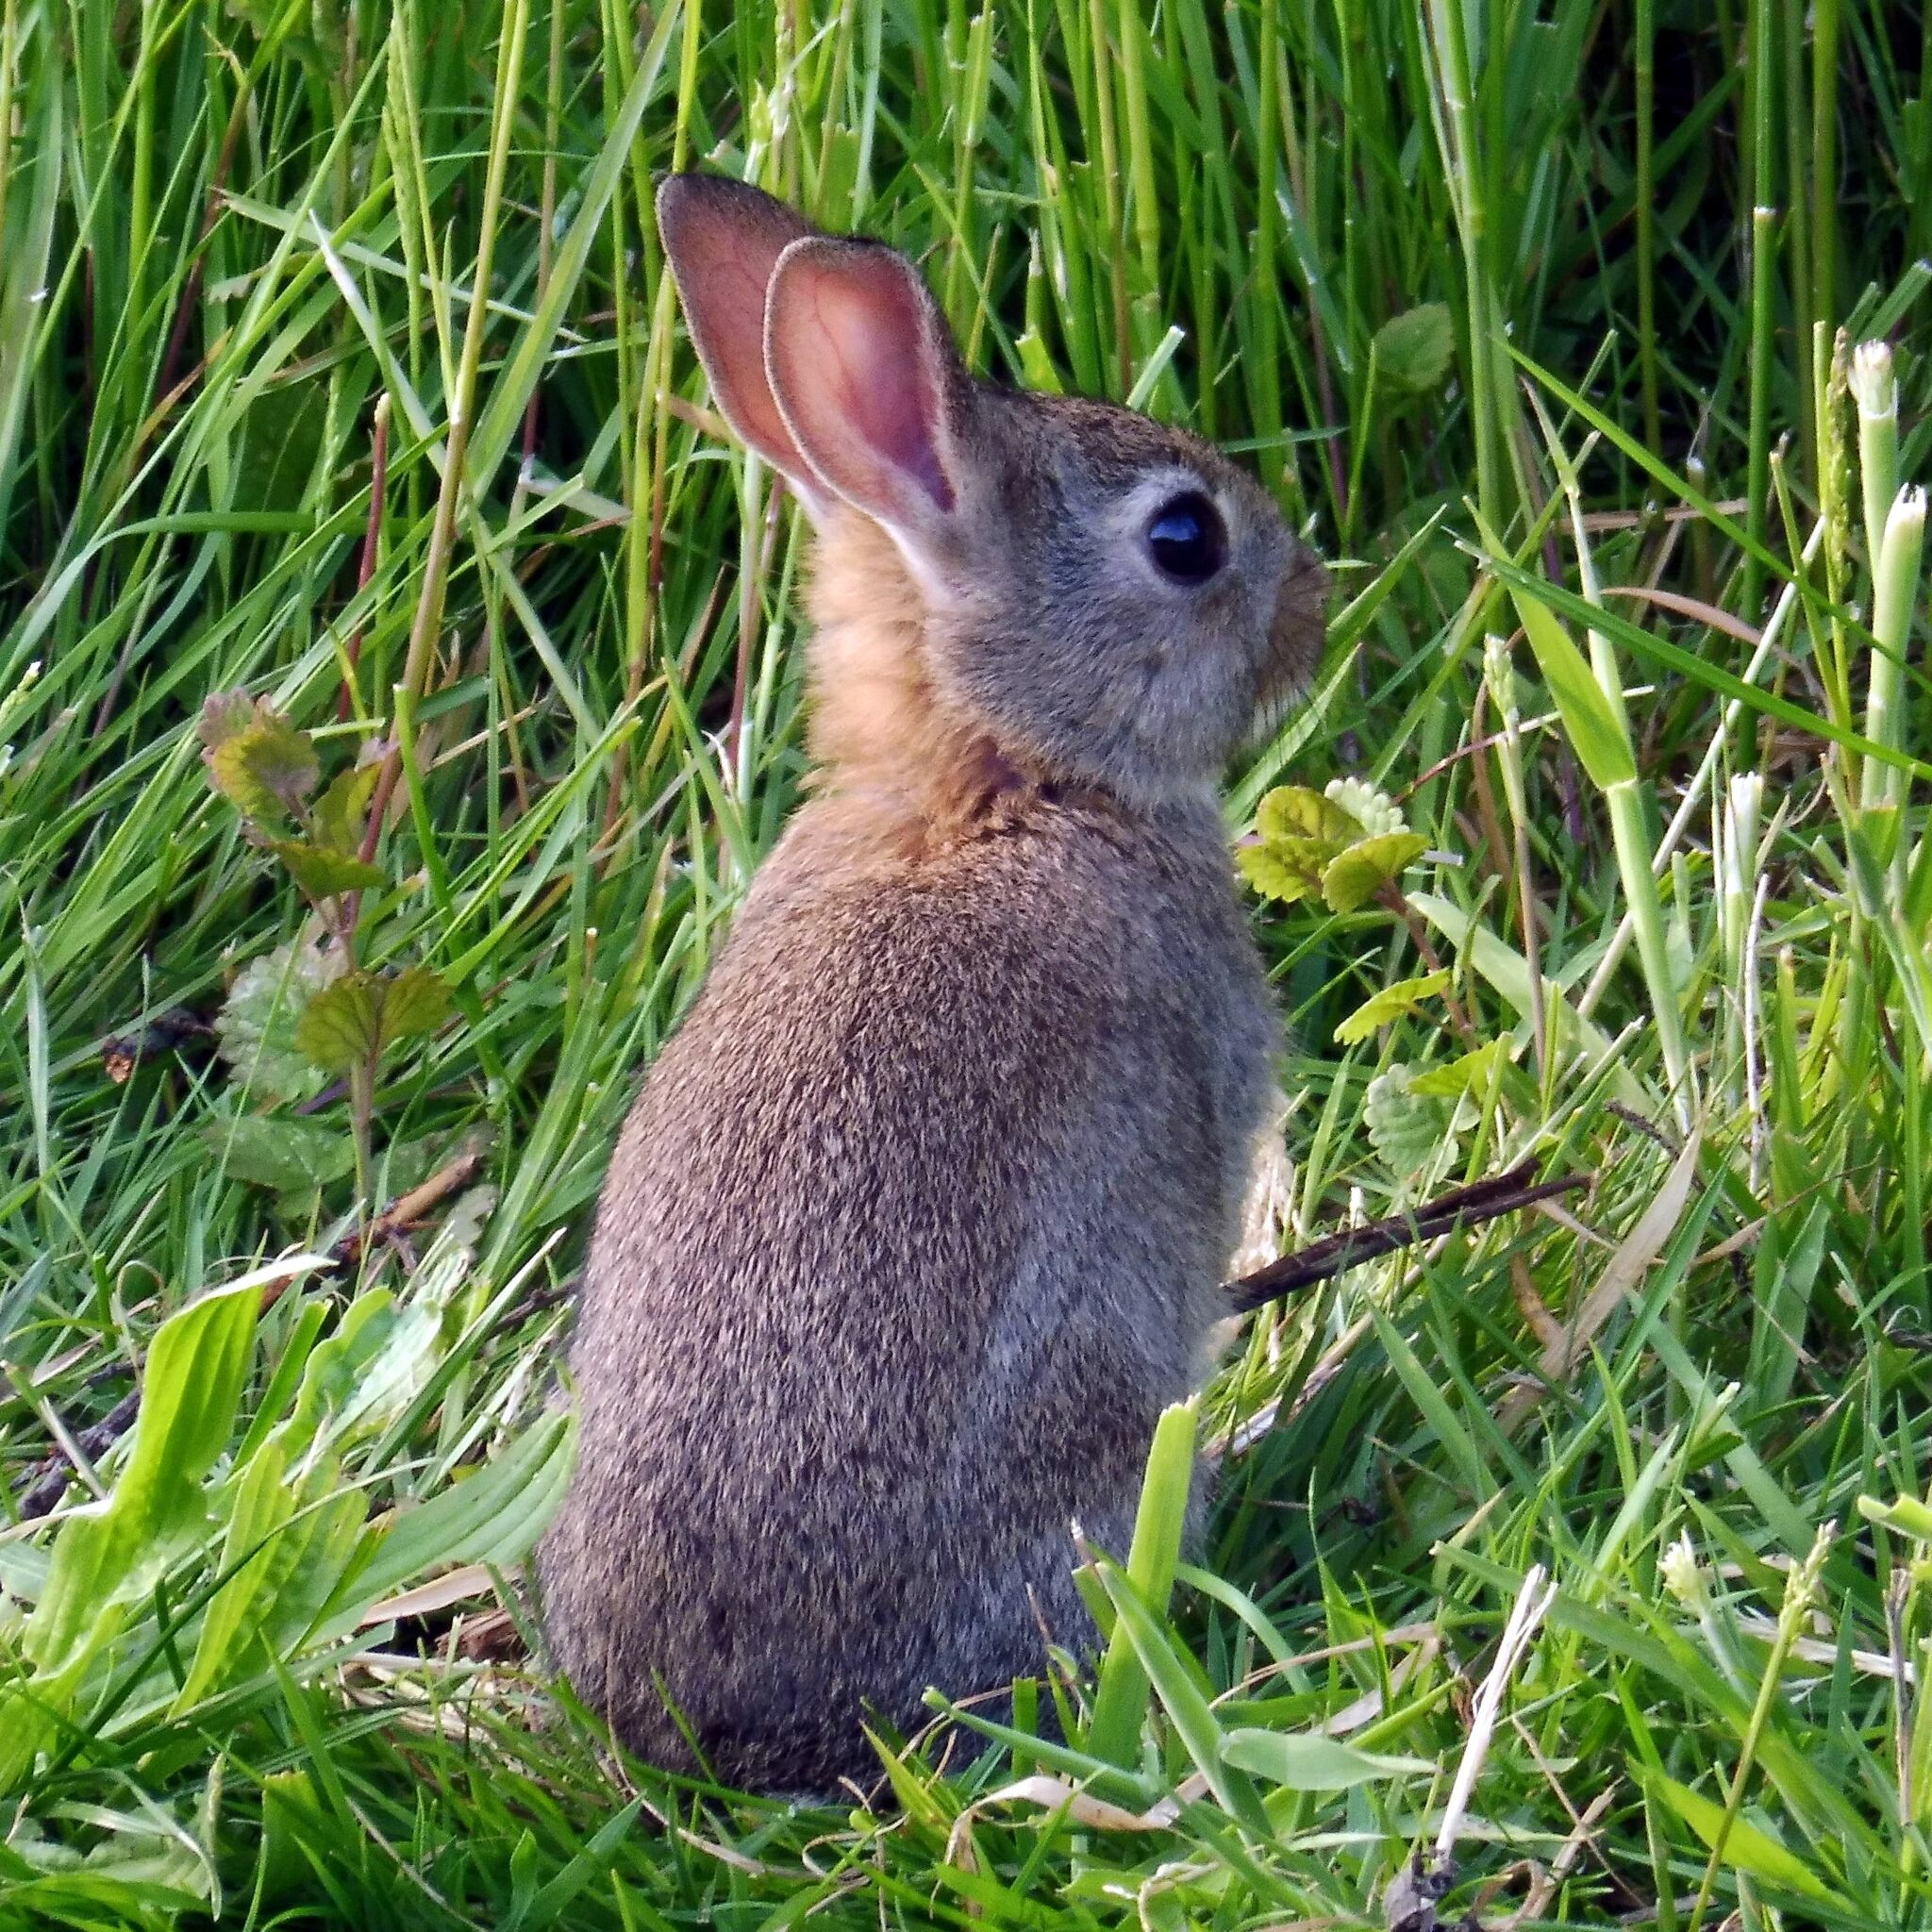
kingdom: Animalia
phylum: Chordata
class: Mammalia
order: Lagomorpha
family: Leporidae
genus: Oryctolagus
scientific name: Oryctolagus cuniculus
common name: European rabbit
